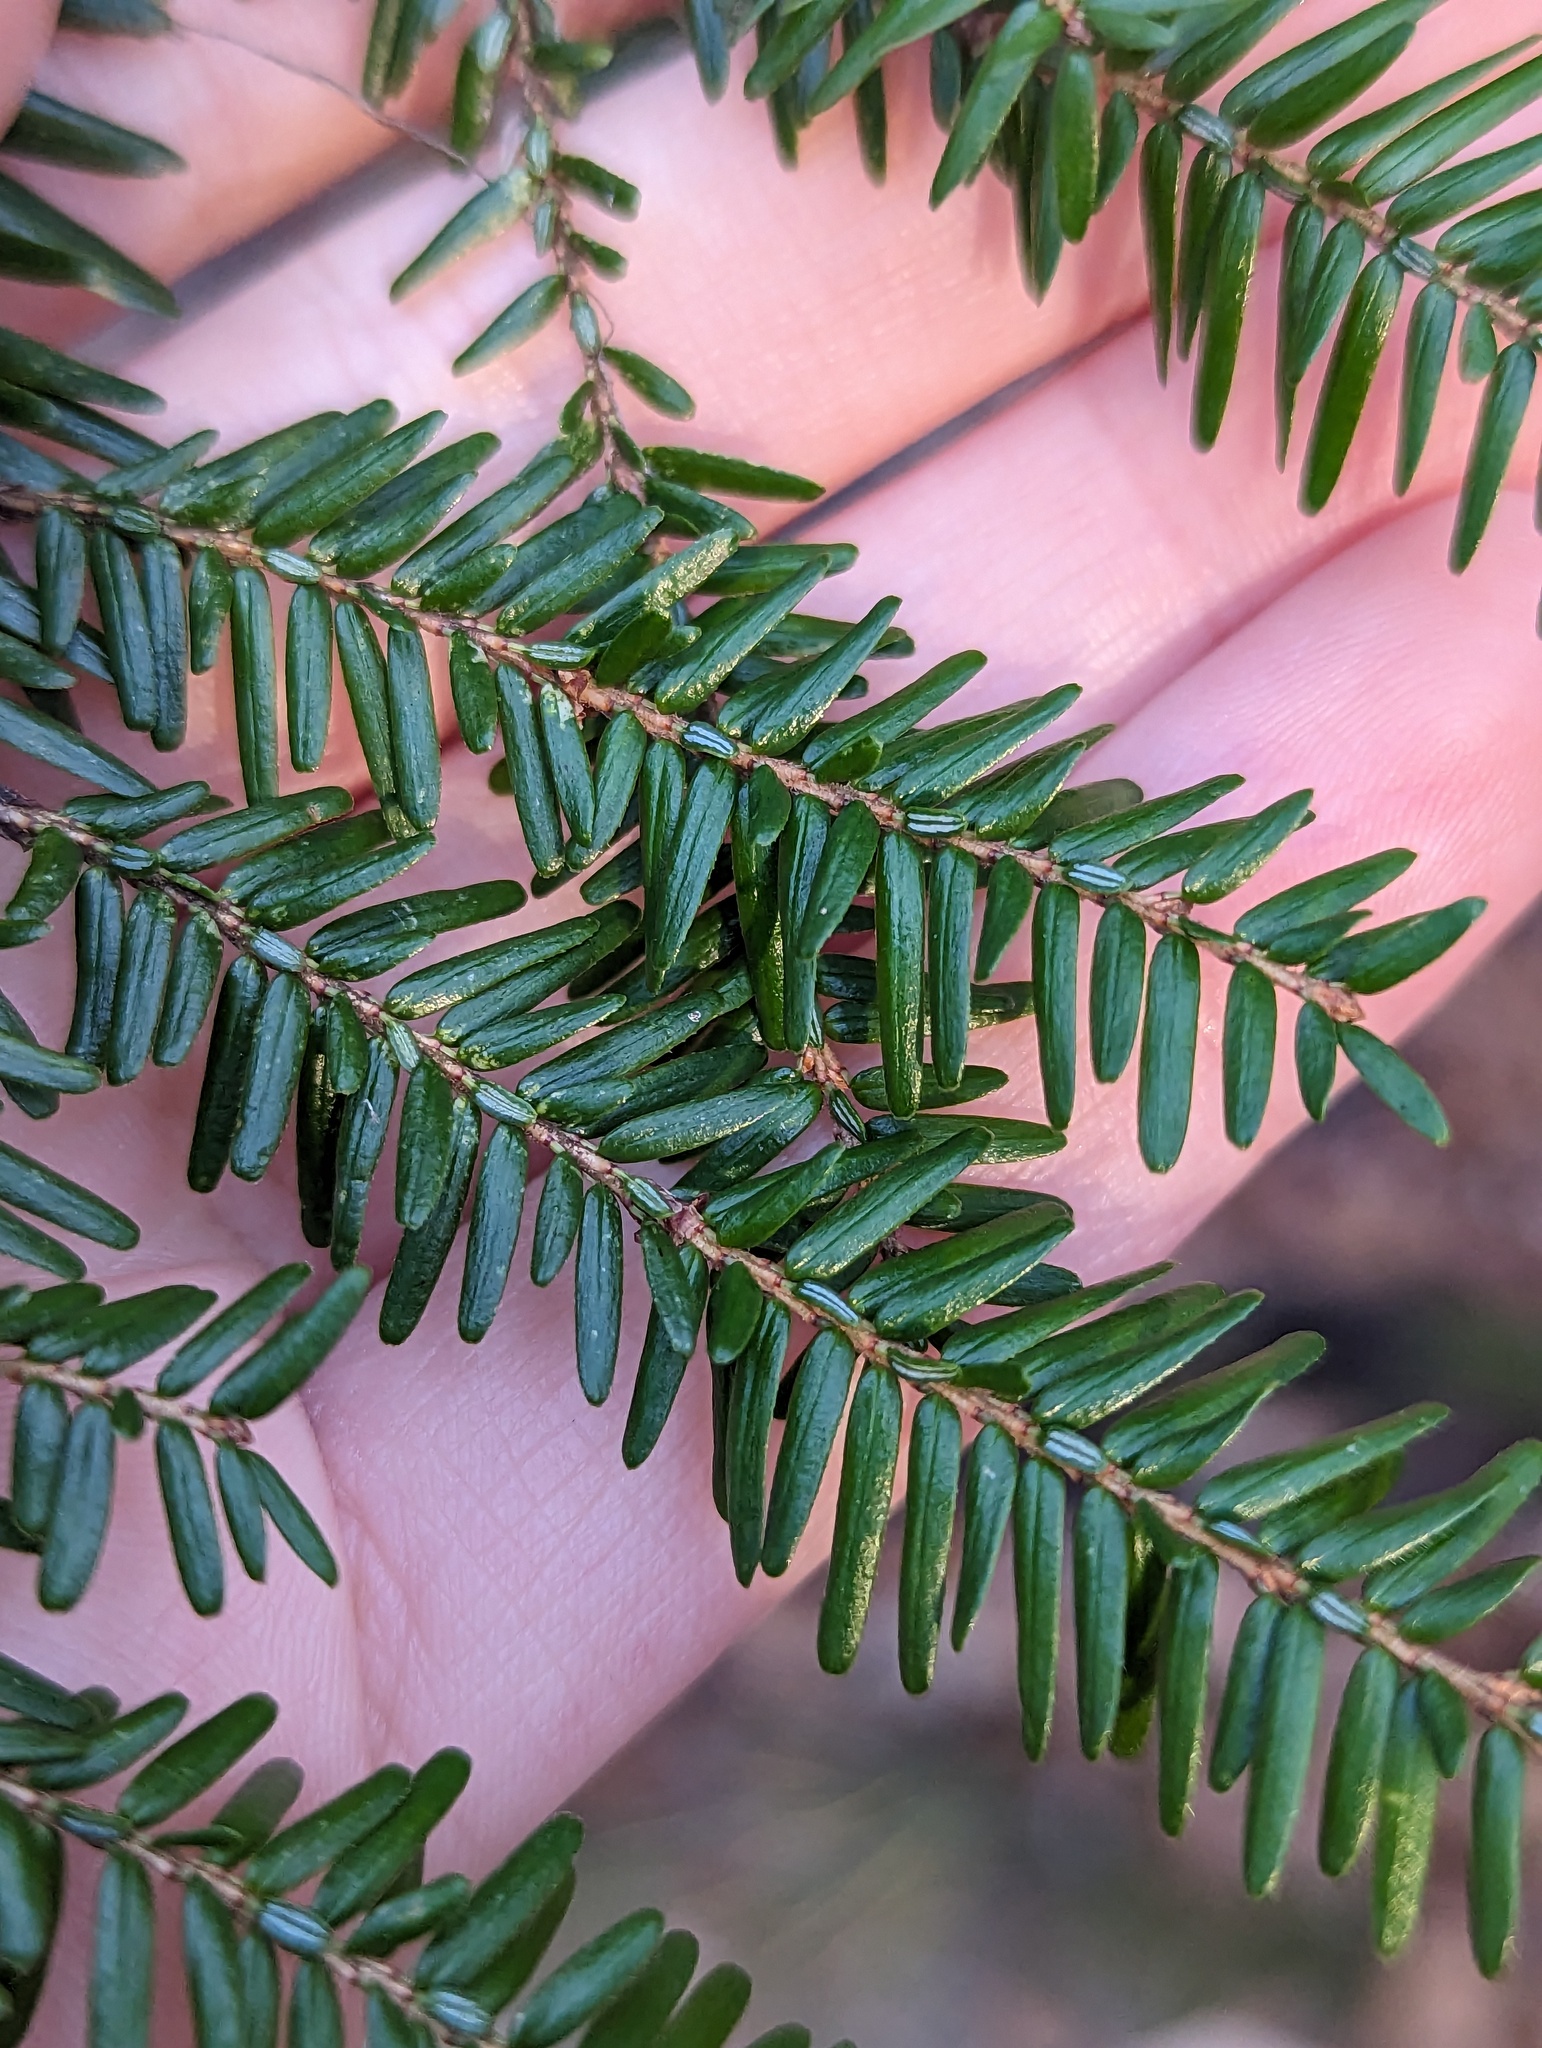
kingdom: Plantae
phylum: Tracheophyta
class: Pinopsida
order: Pinales
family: Pinaceae
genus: Tsuga
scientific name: Tsuga canadensis
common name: Eastern hemlock
